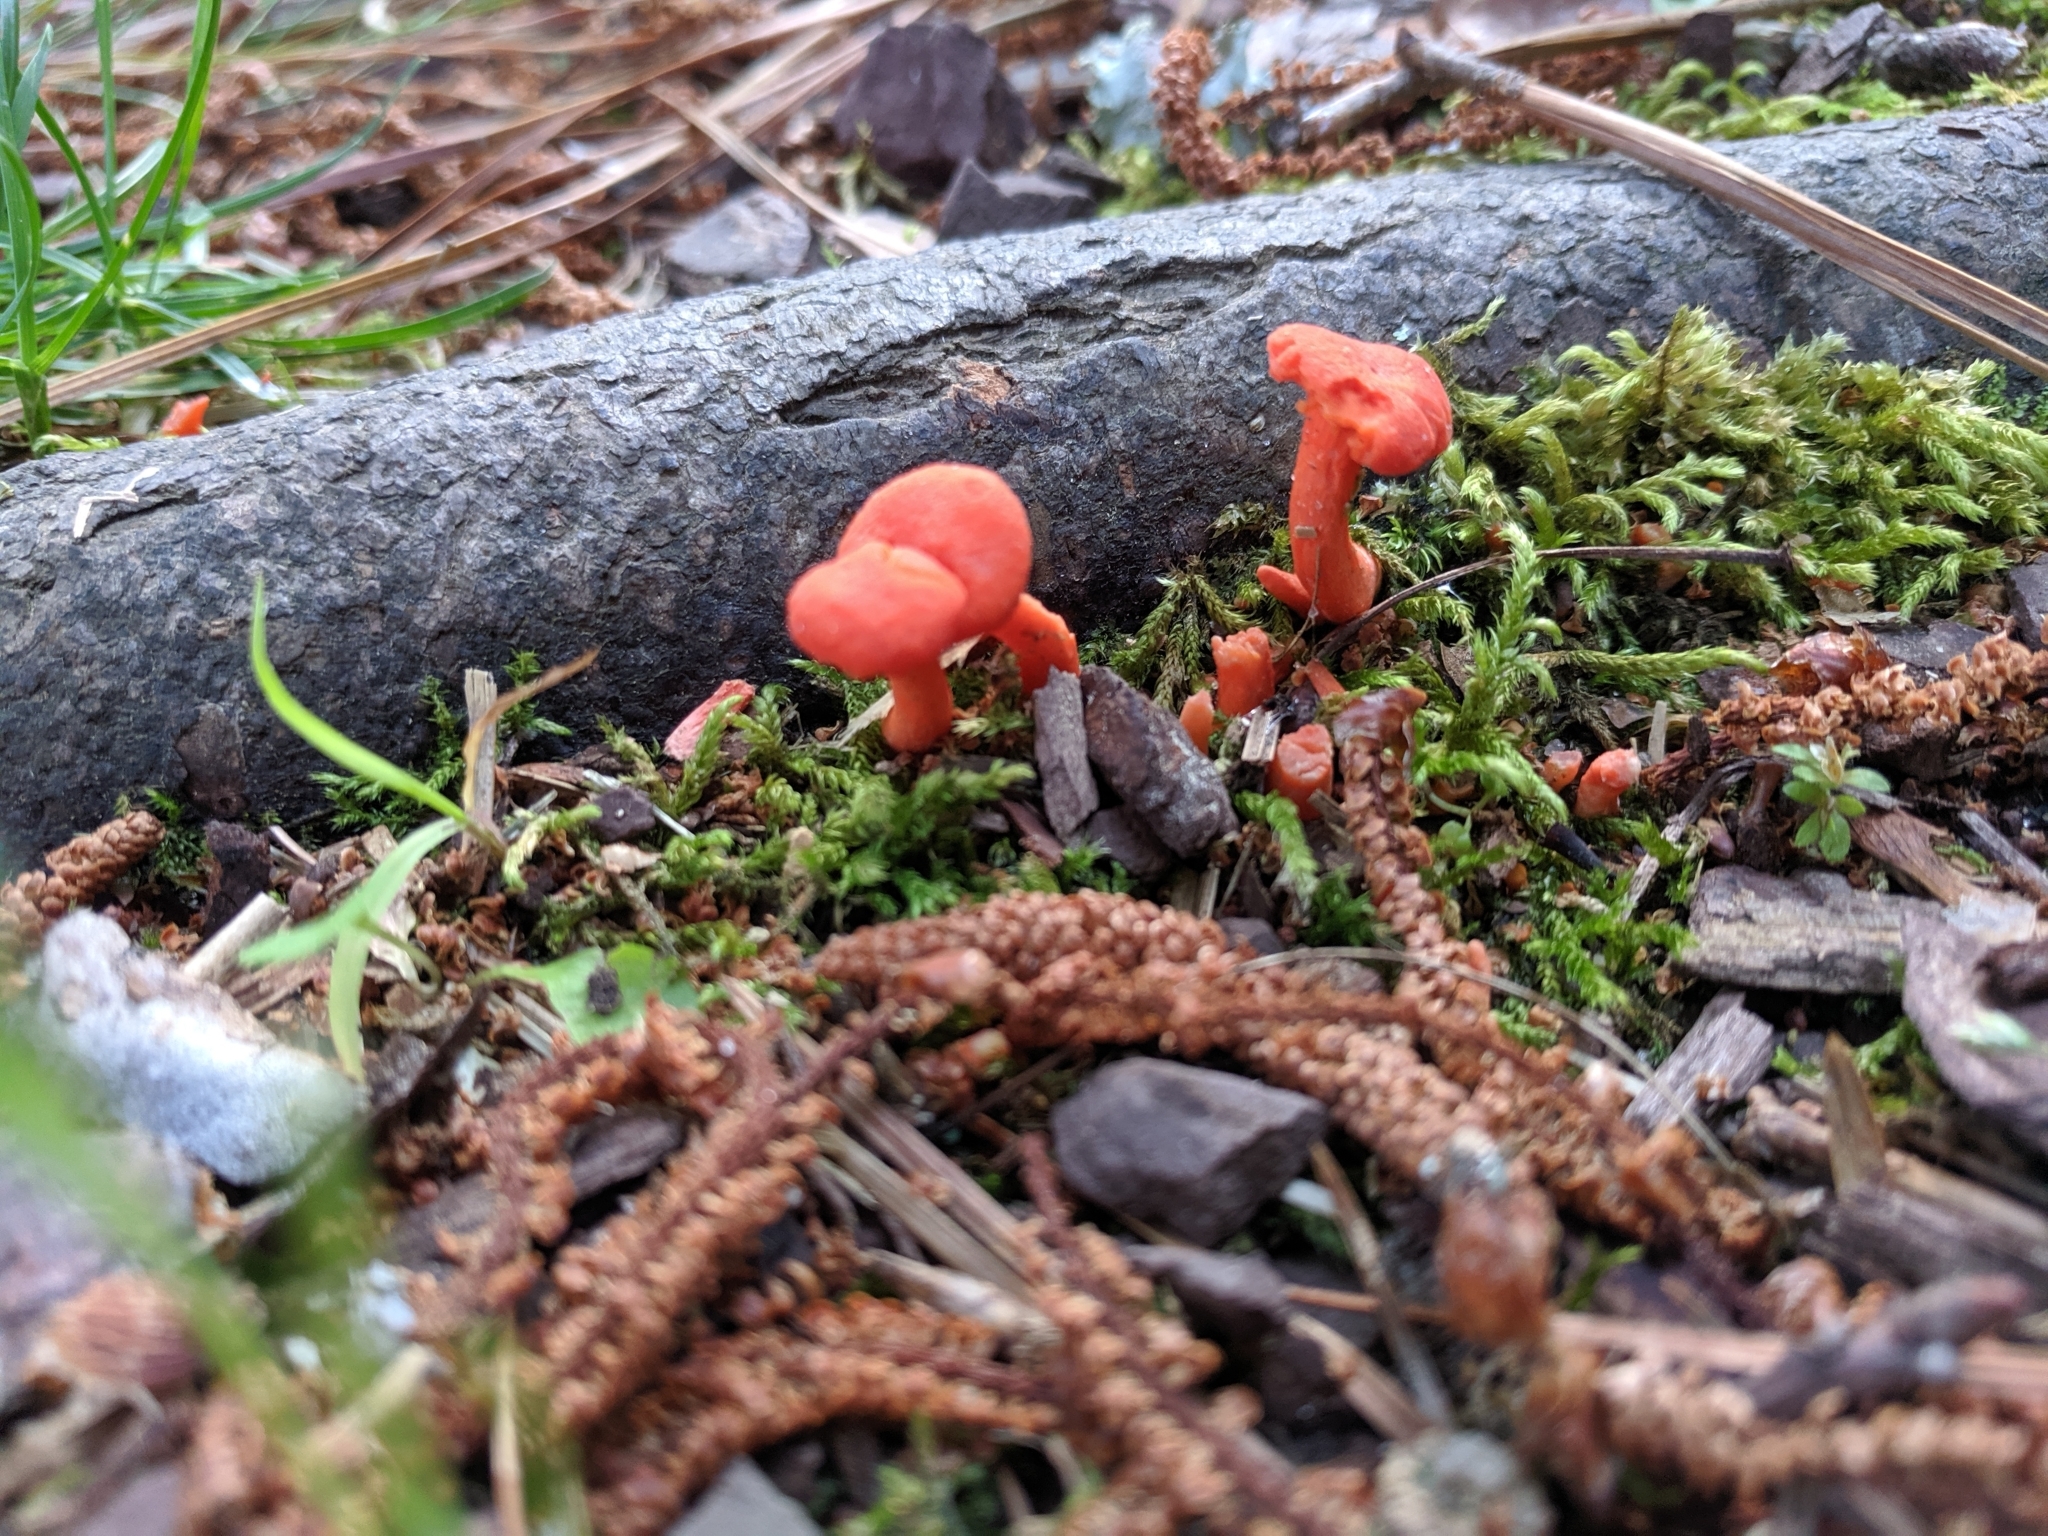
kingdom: Fungi
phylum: Basidiomycota
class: Agaricomycetes
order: Cantharellales
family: Hydnaceae
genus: Cantharellus
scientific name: Cantharellus cinnabarinus
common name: Cinnabar chanterelle
